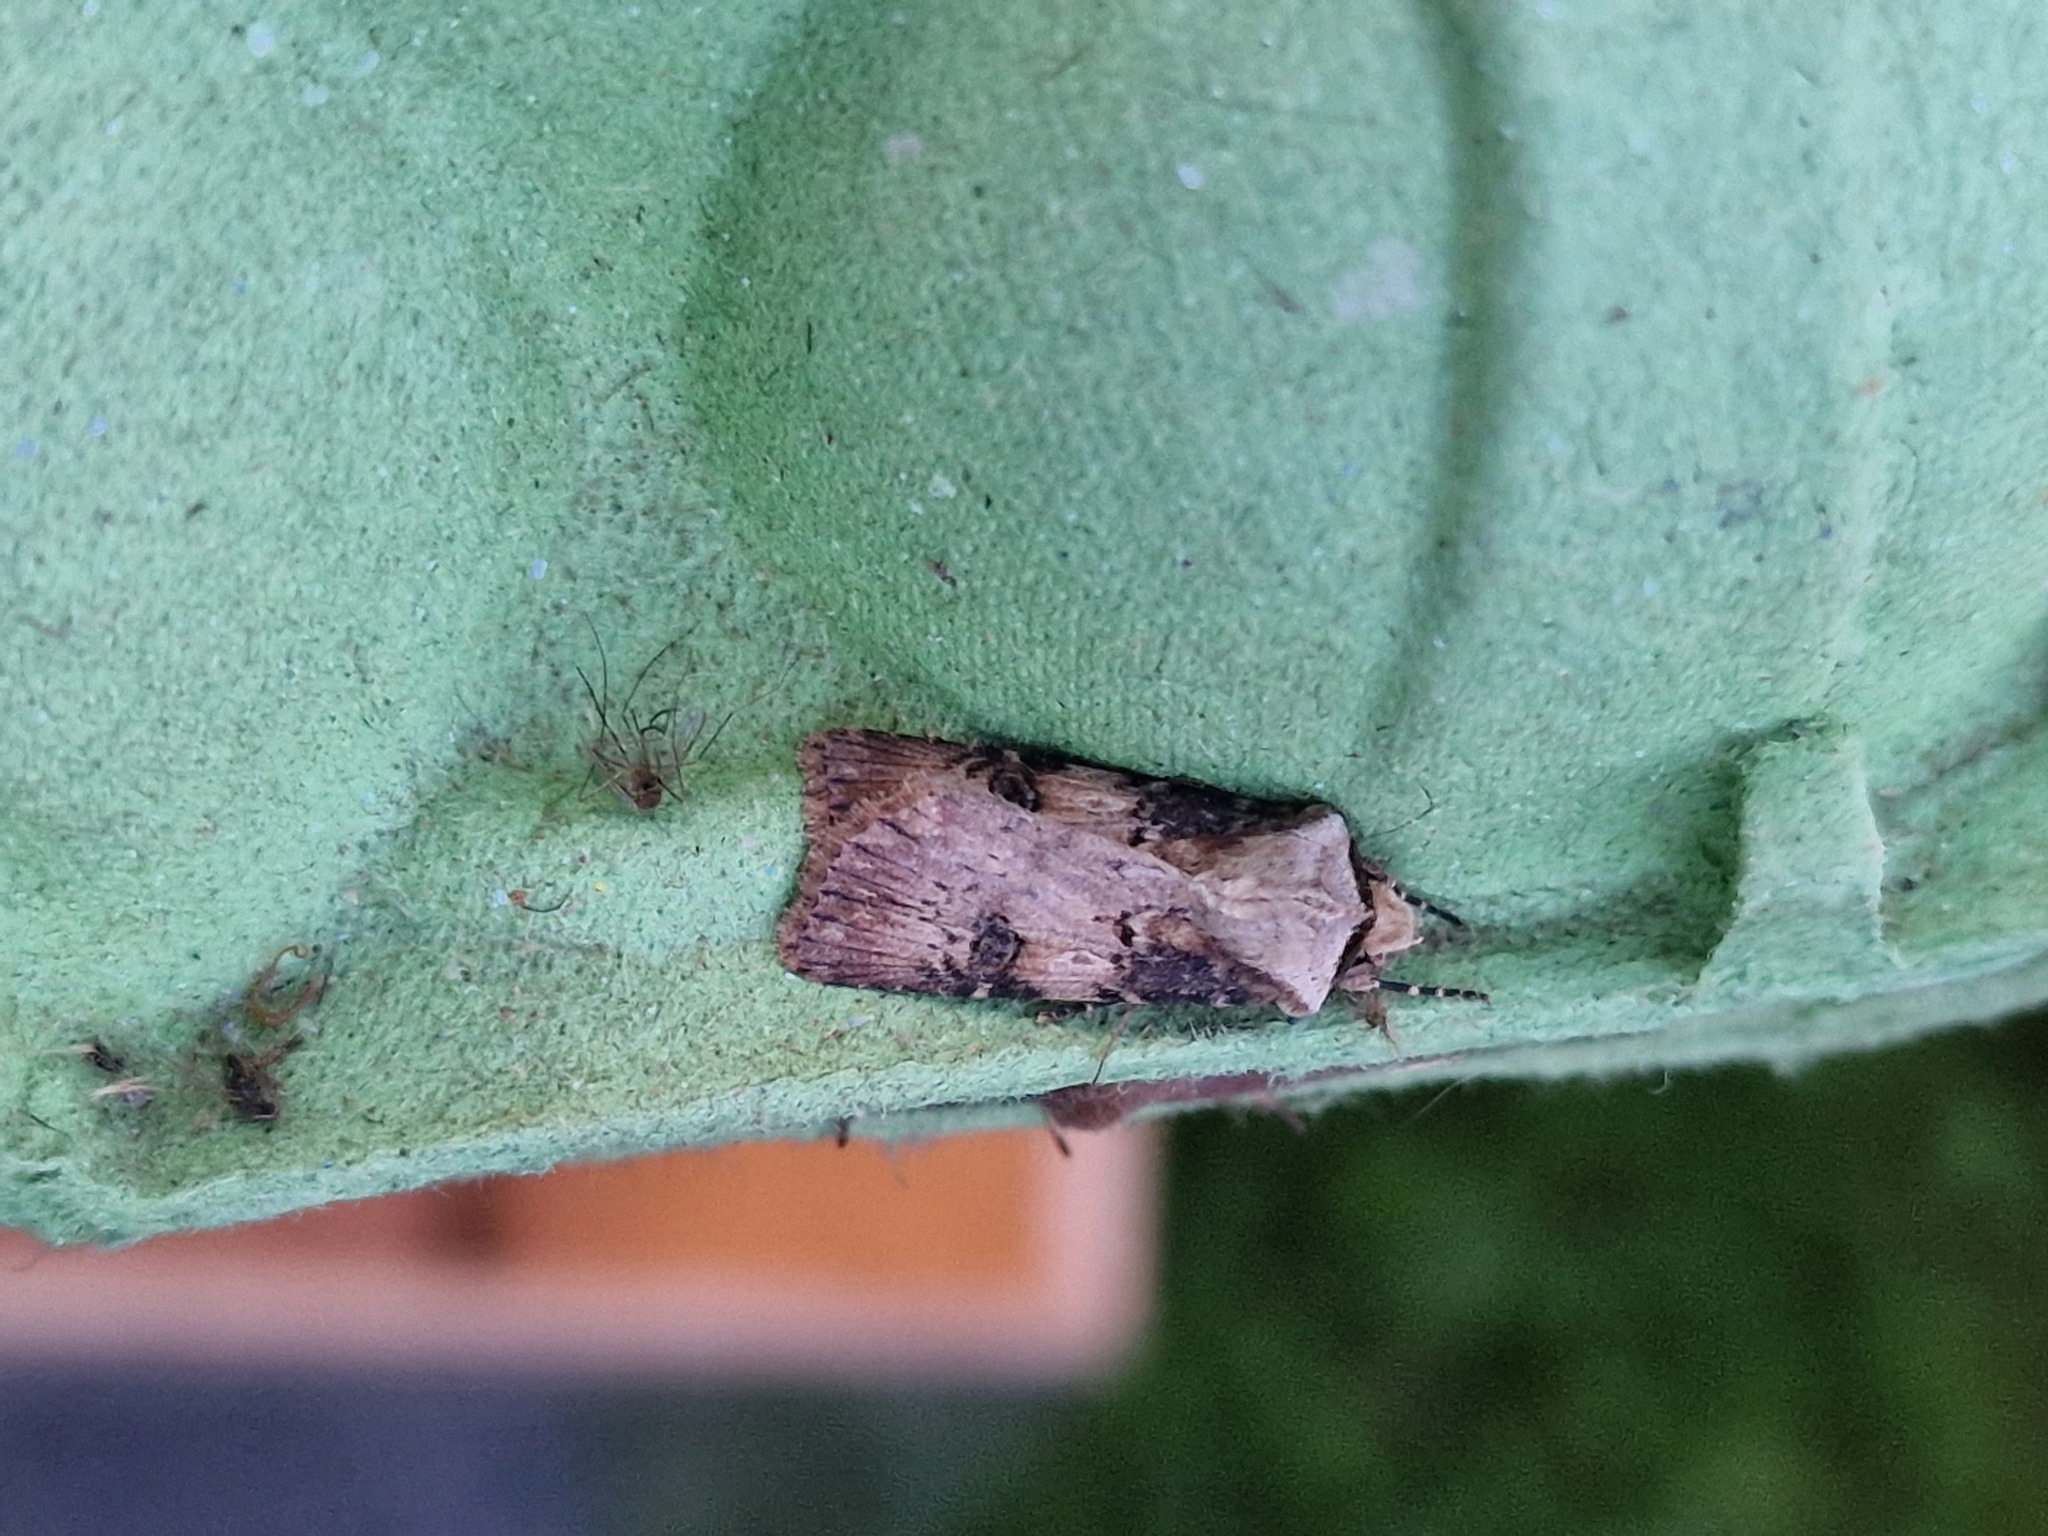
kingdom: Animalia
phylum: Arthropoda
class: Insecta
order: Lepidoptera
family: Noctuidae
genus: Agrotis
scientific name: Agrotis puta
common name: Shuttle-shaped dart
